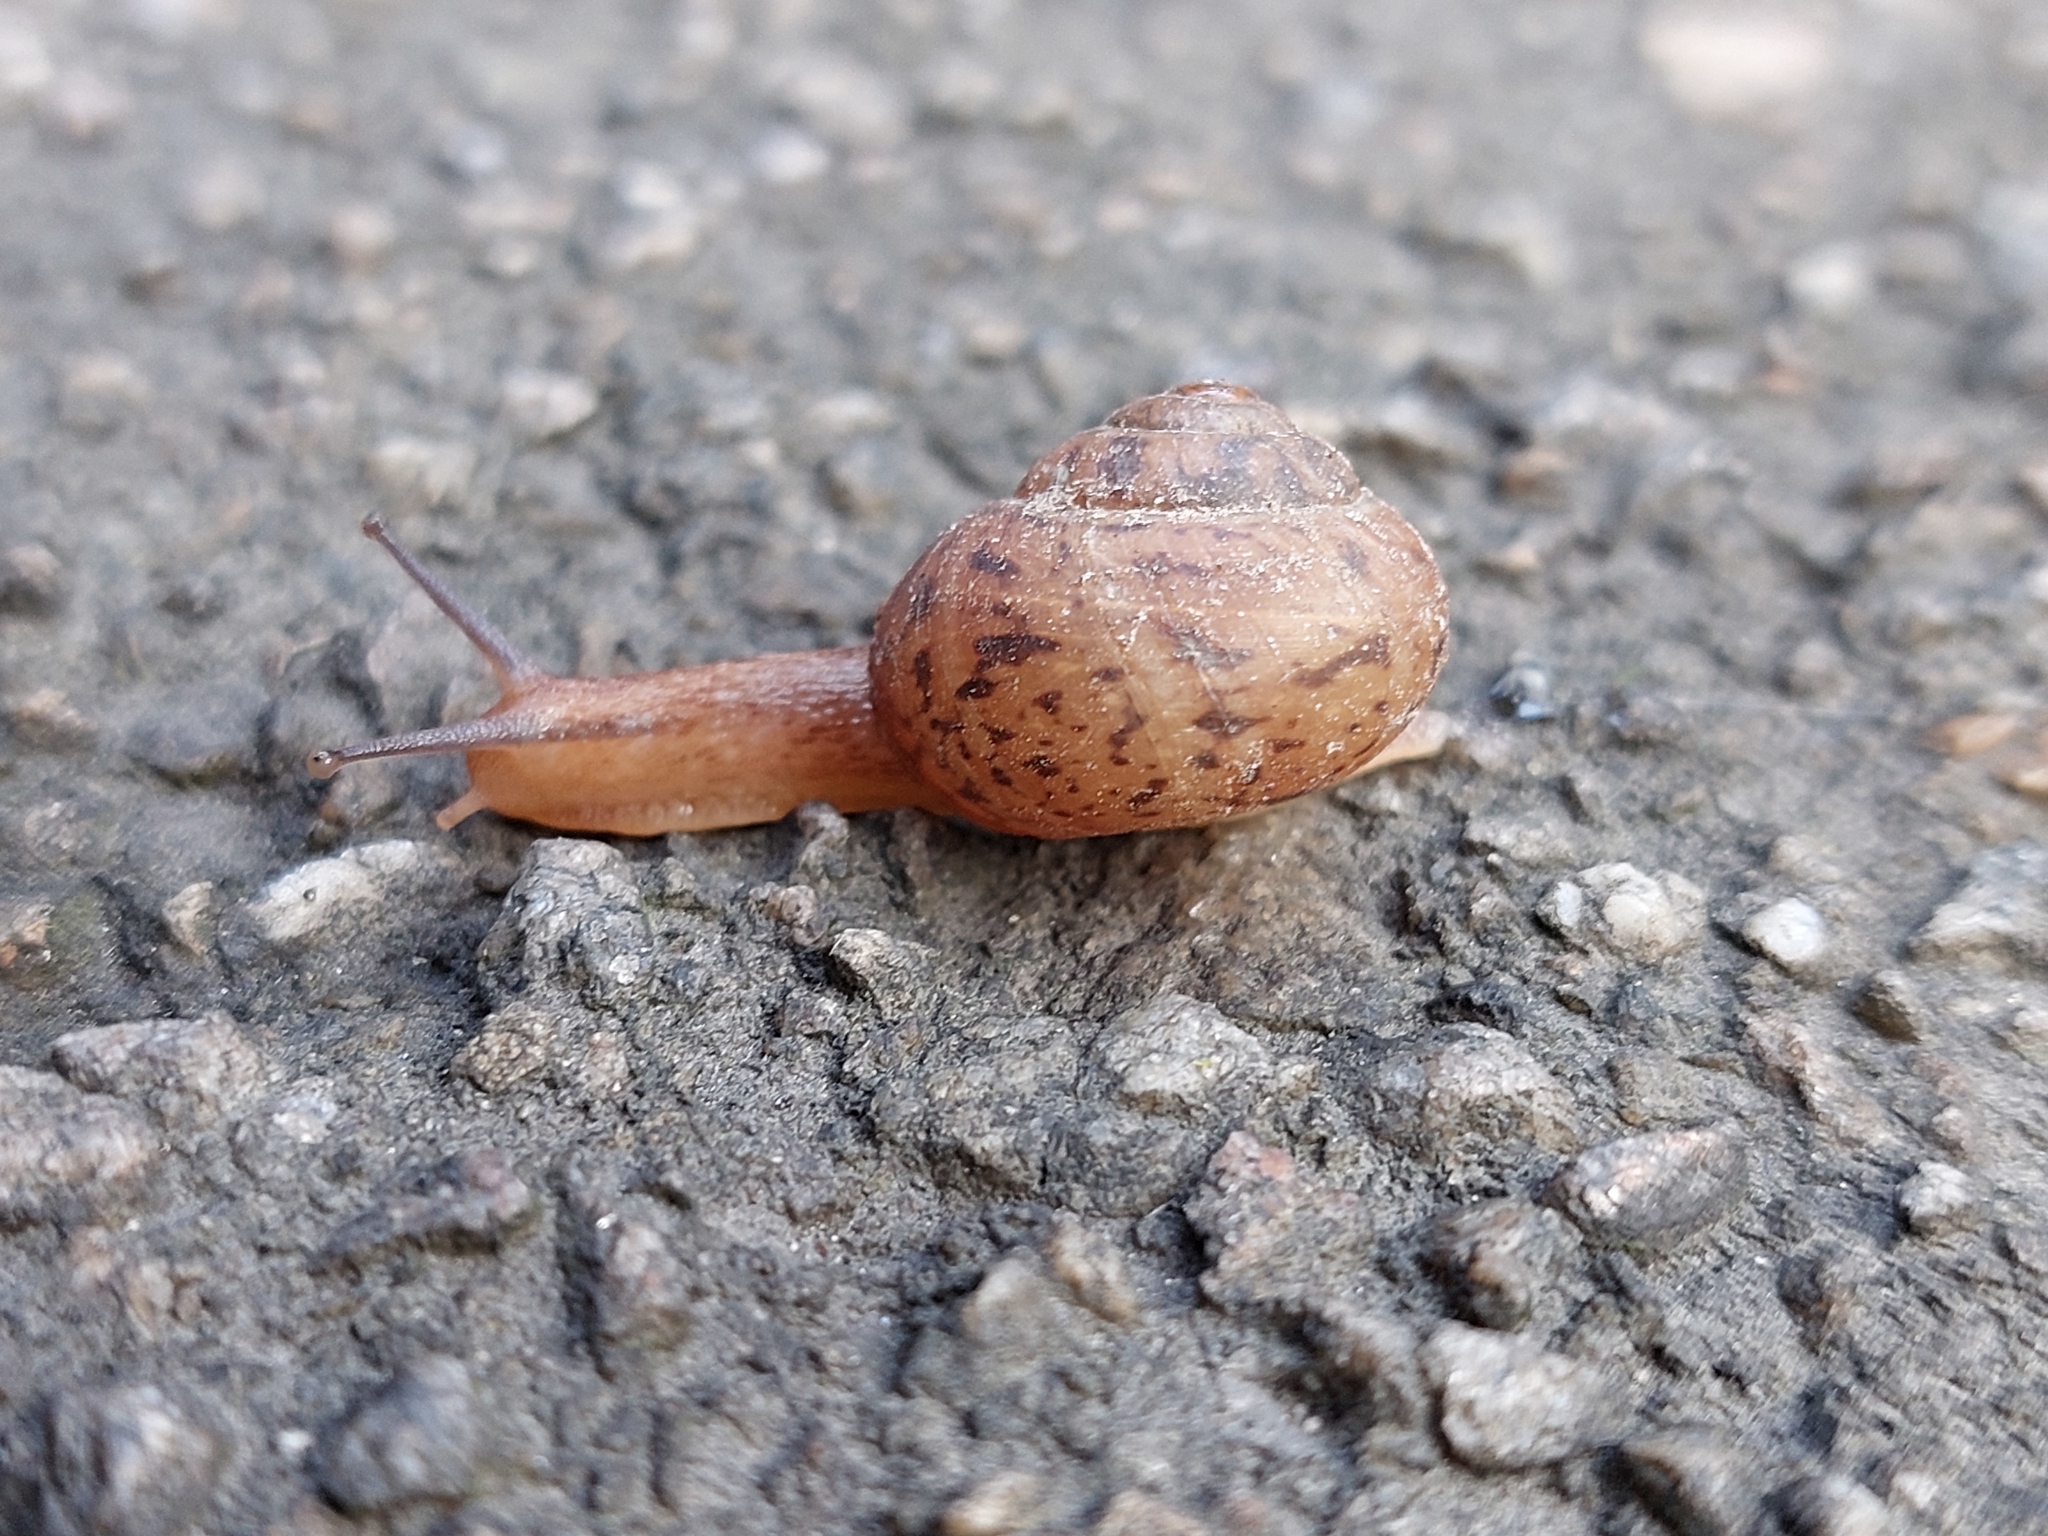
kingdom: Animalia
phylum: Mollusca
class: Gastropoda
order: Stylommatophora
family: Camaenidae
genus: Fruticicola
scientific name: Fruticicola fruticum
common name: Bush snail
